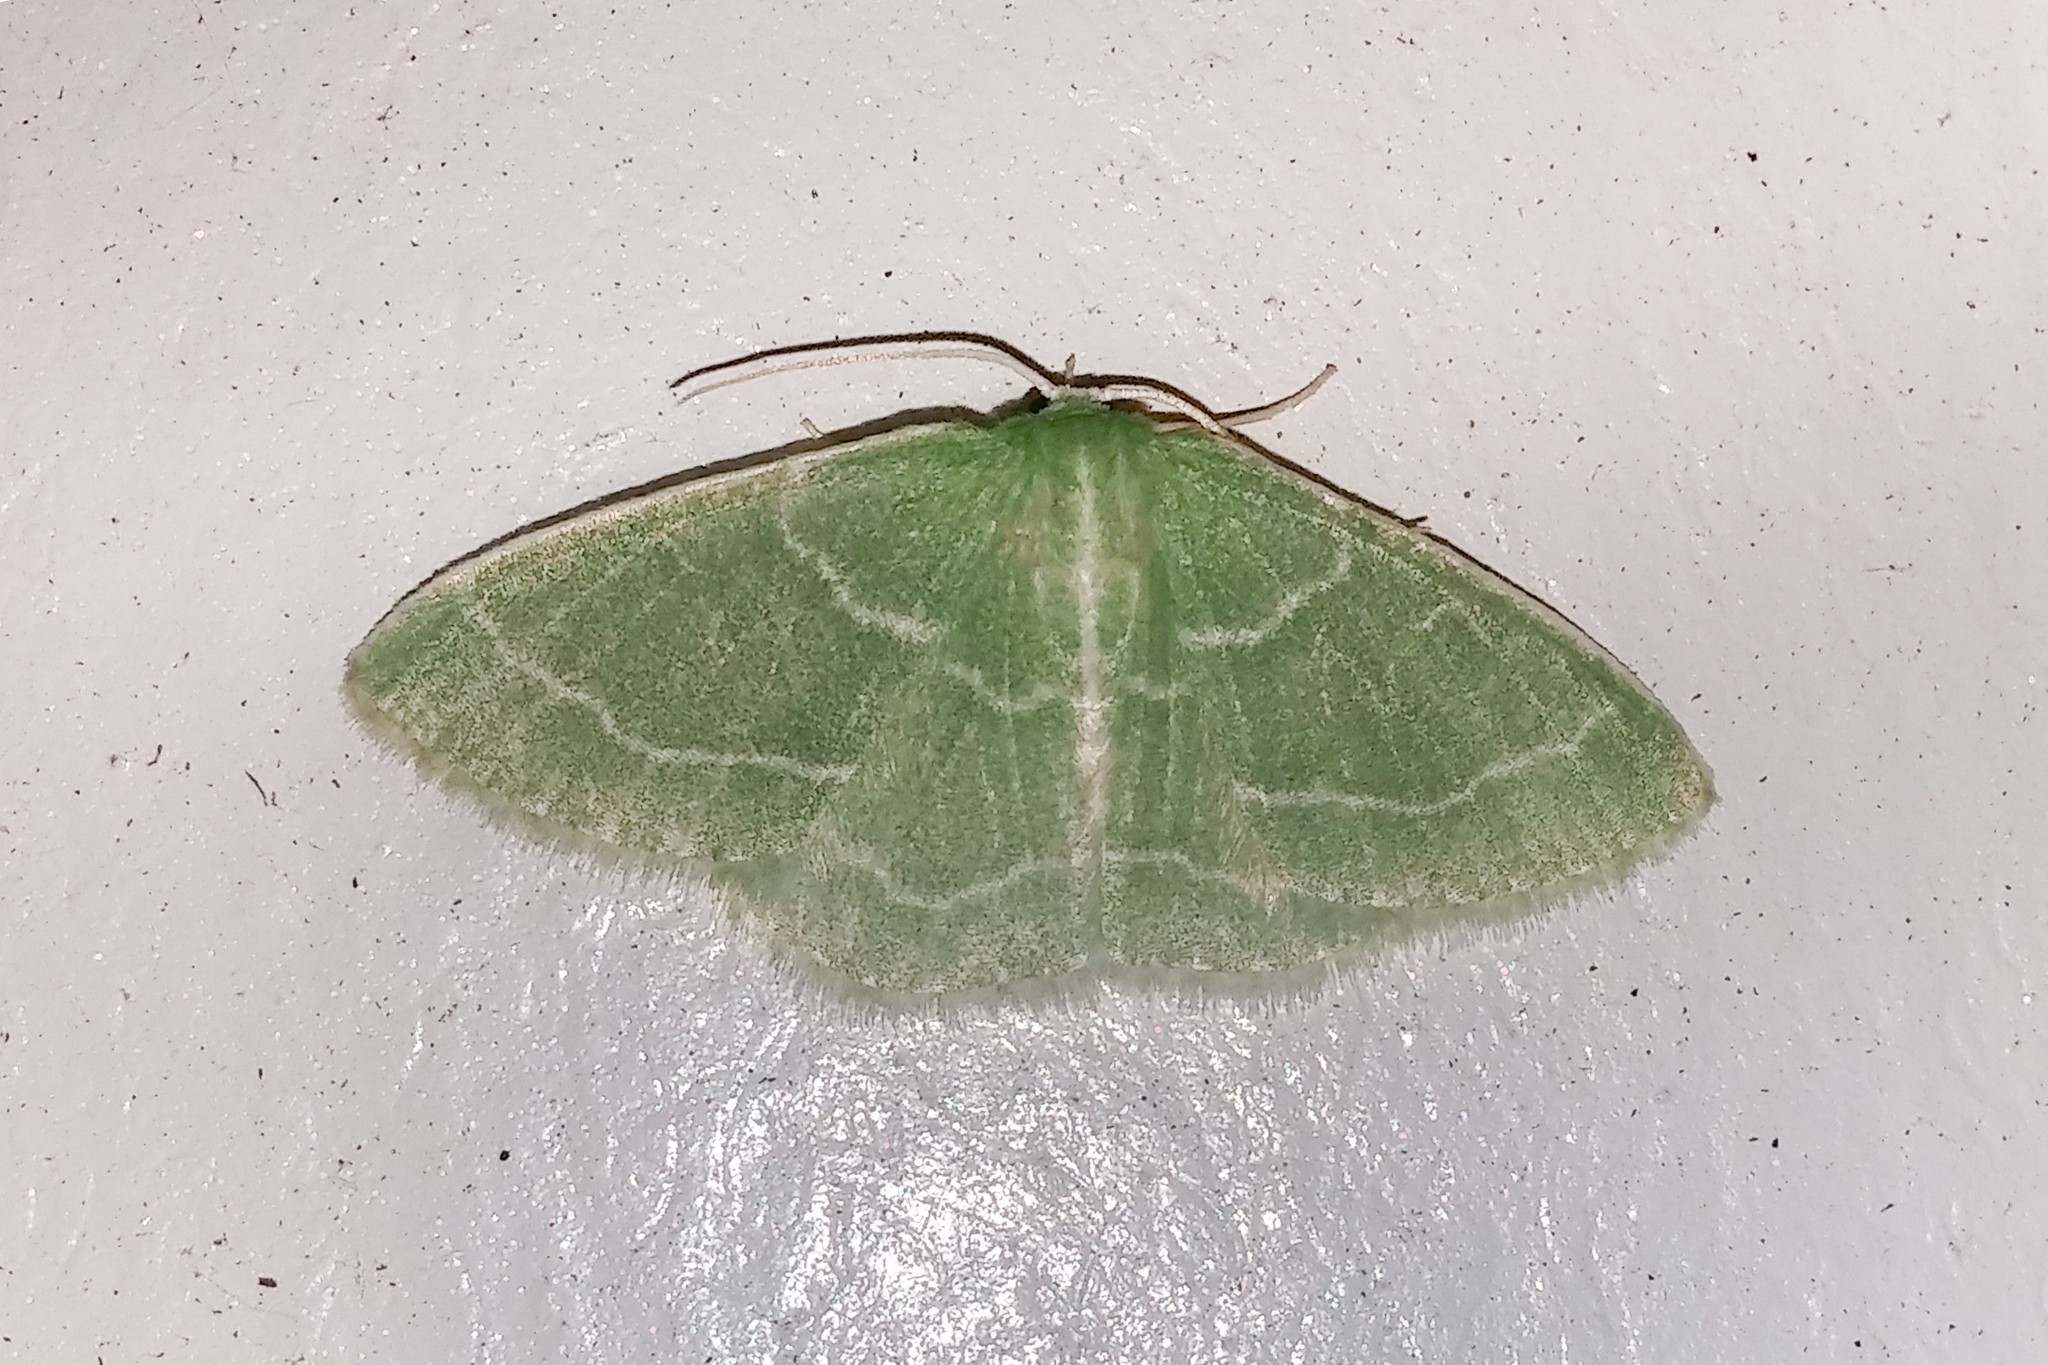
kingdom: Animalia
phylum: Arthropoda
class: Insecta
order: Lepidoptera
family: Geometridae
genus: Synchlora
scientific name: Synchlora aerata
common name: Wavy-lined emerald
